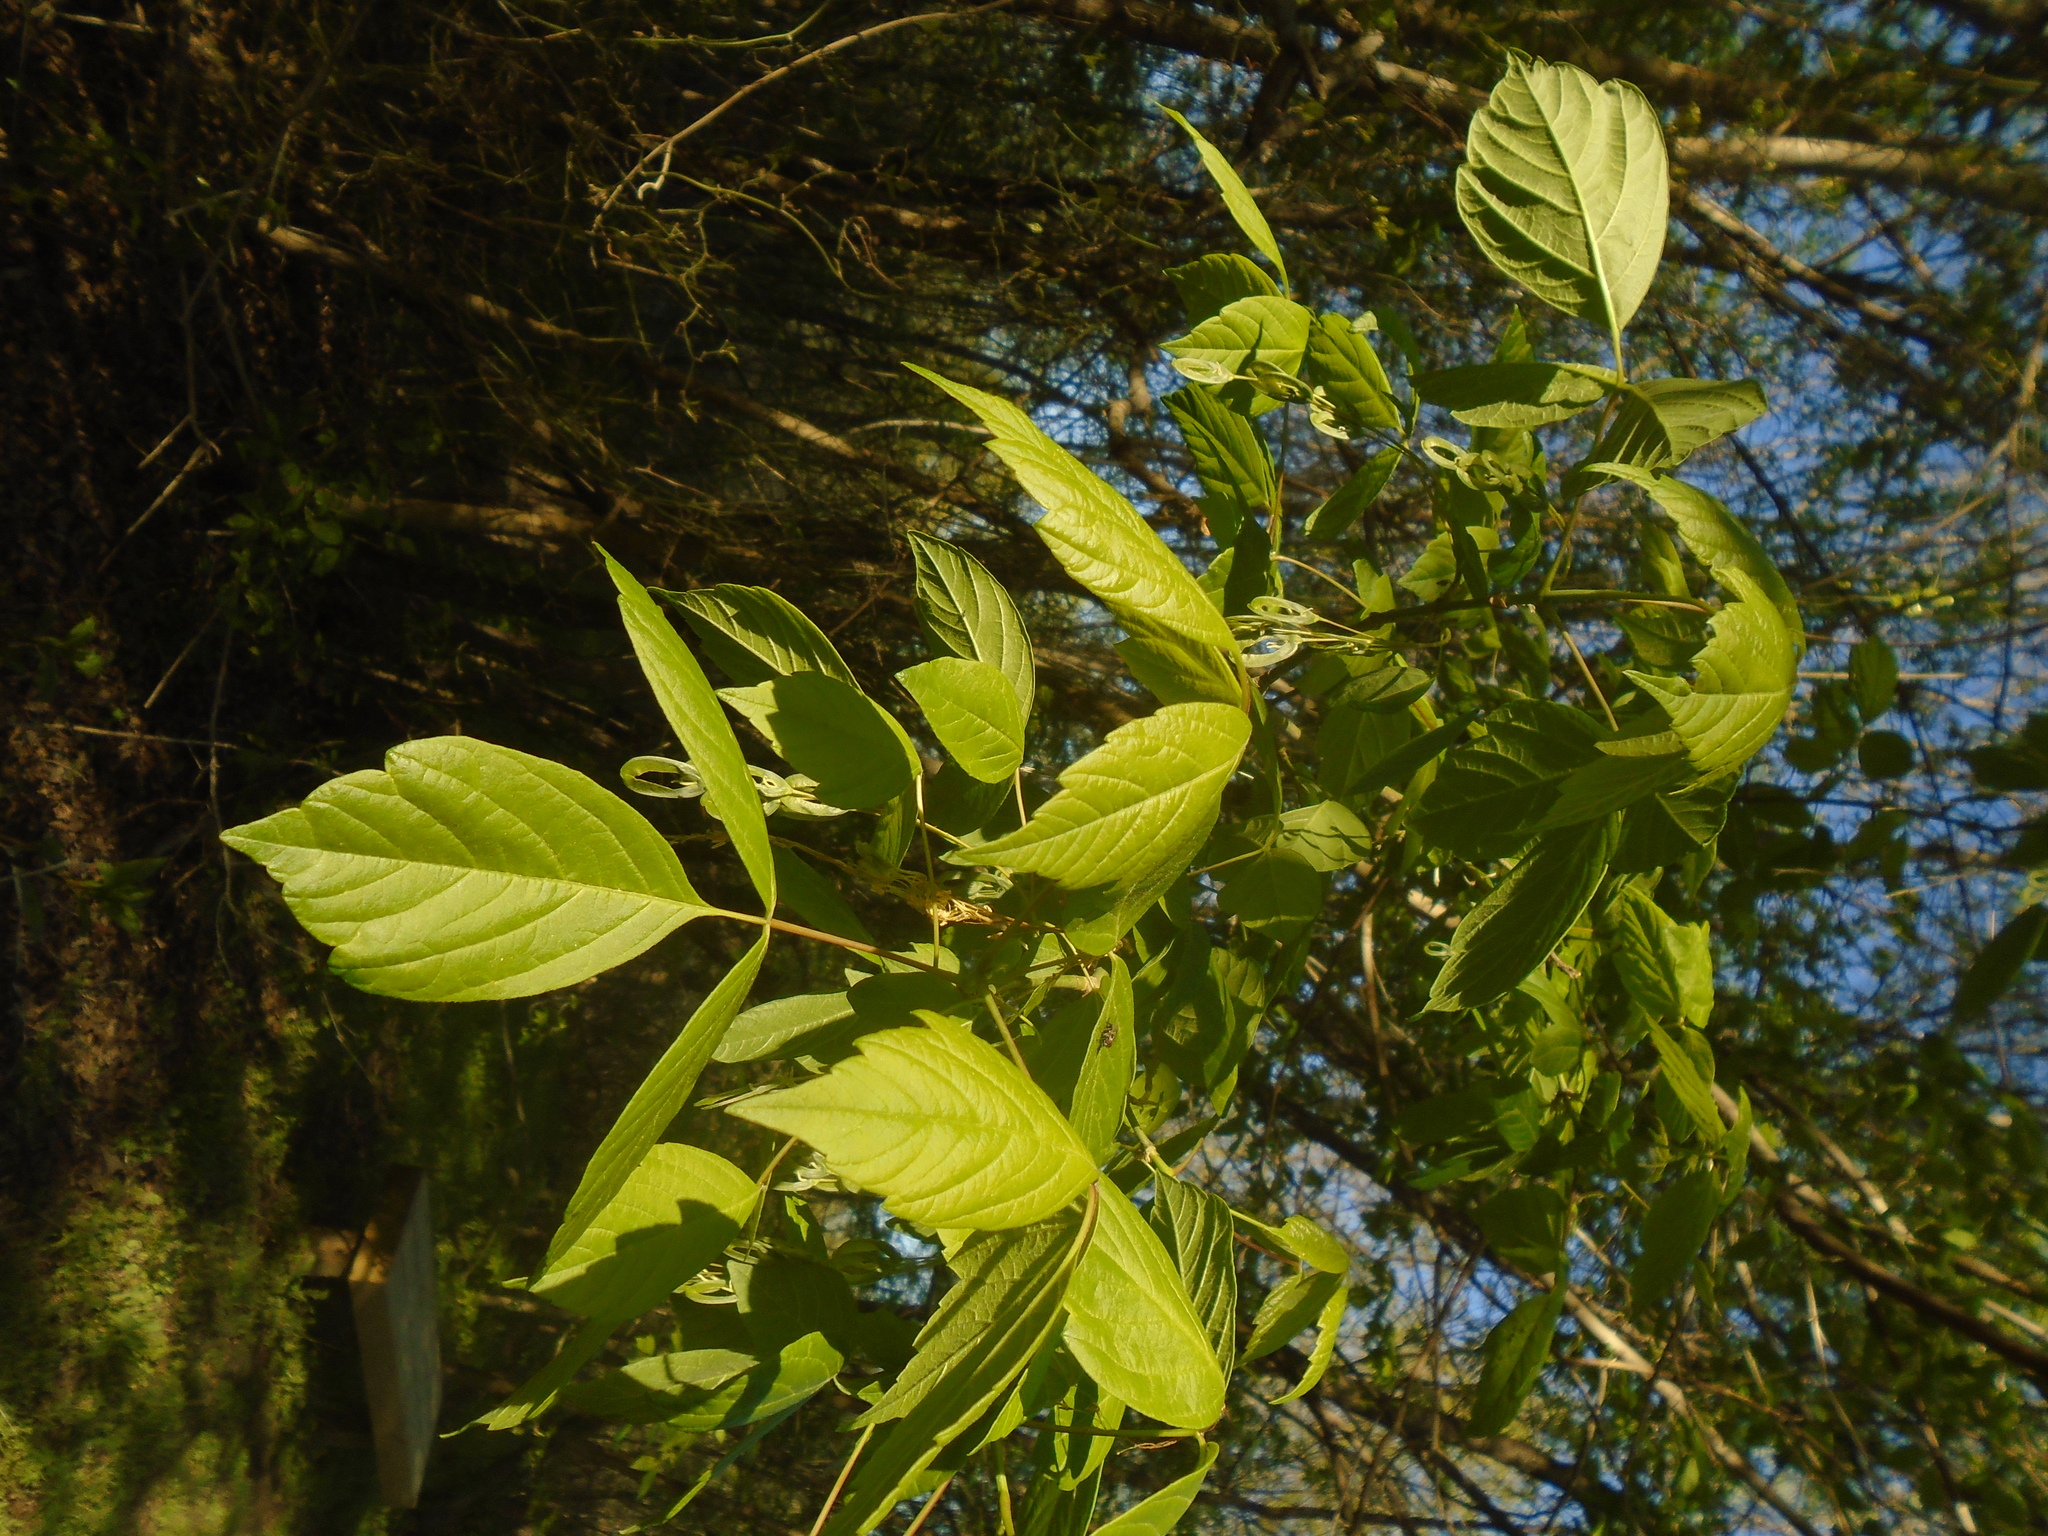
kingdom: Plantae
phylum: Tracheophyta
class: Magnoliopsida
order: Sapindales
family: Sapindaceae
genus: Acer
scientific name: Acer negundo
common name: Ashleaf maple
